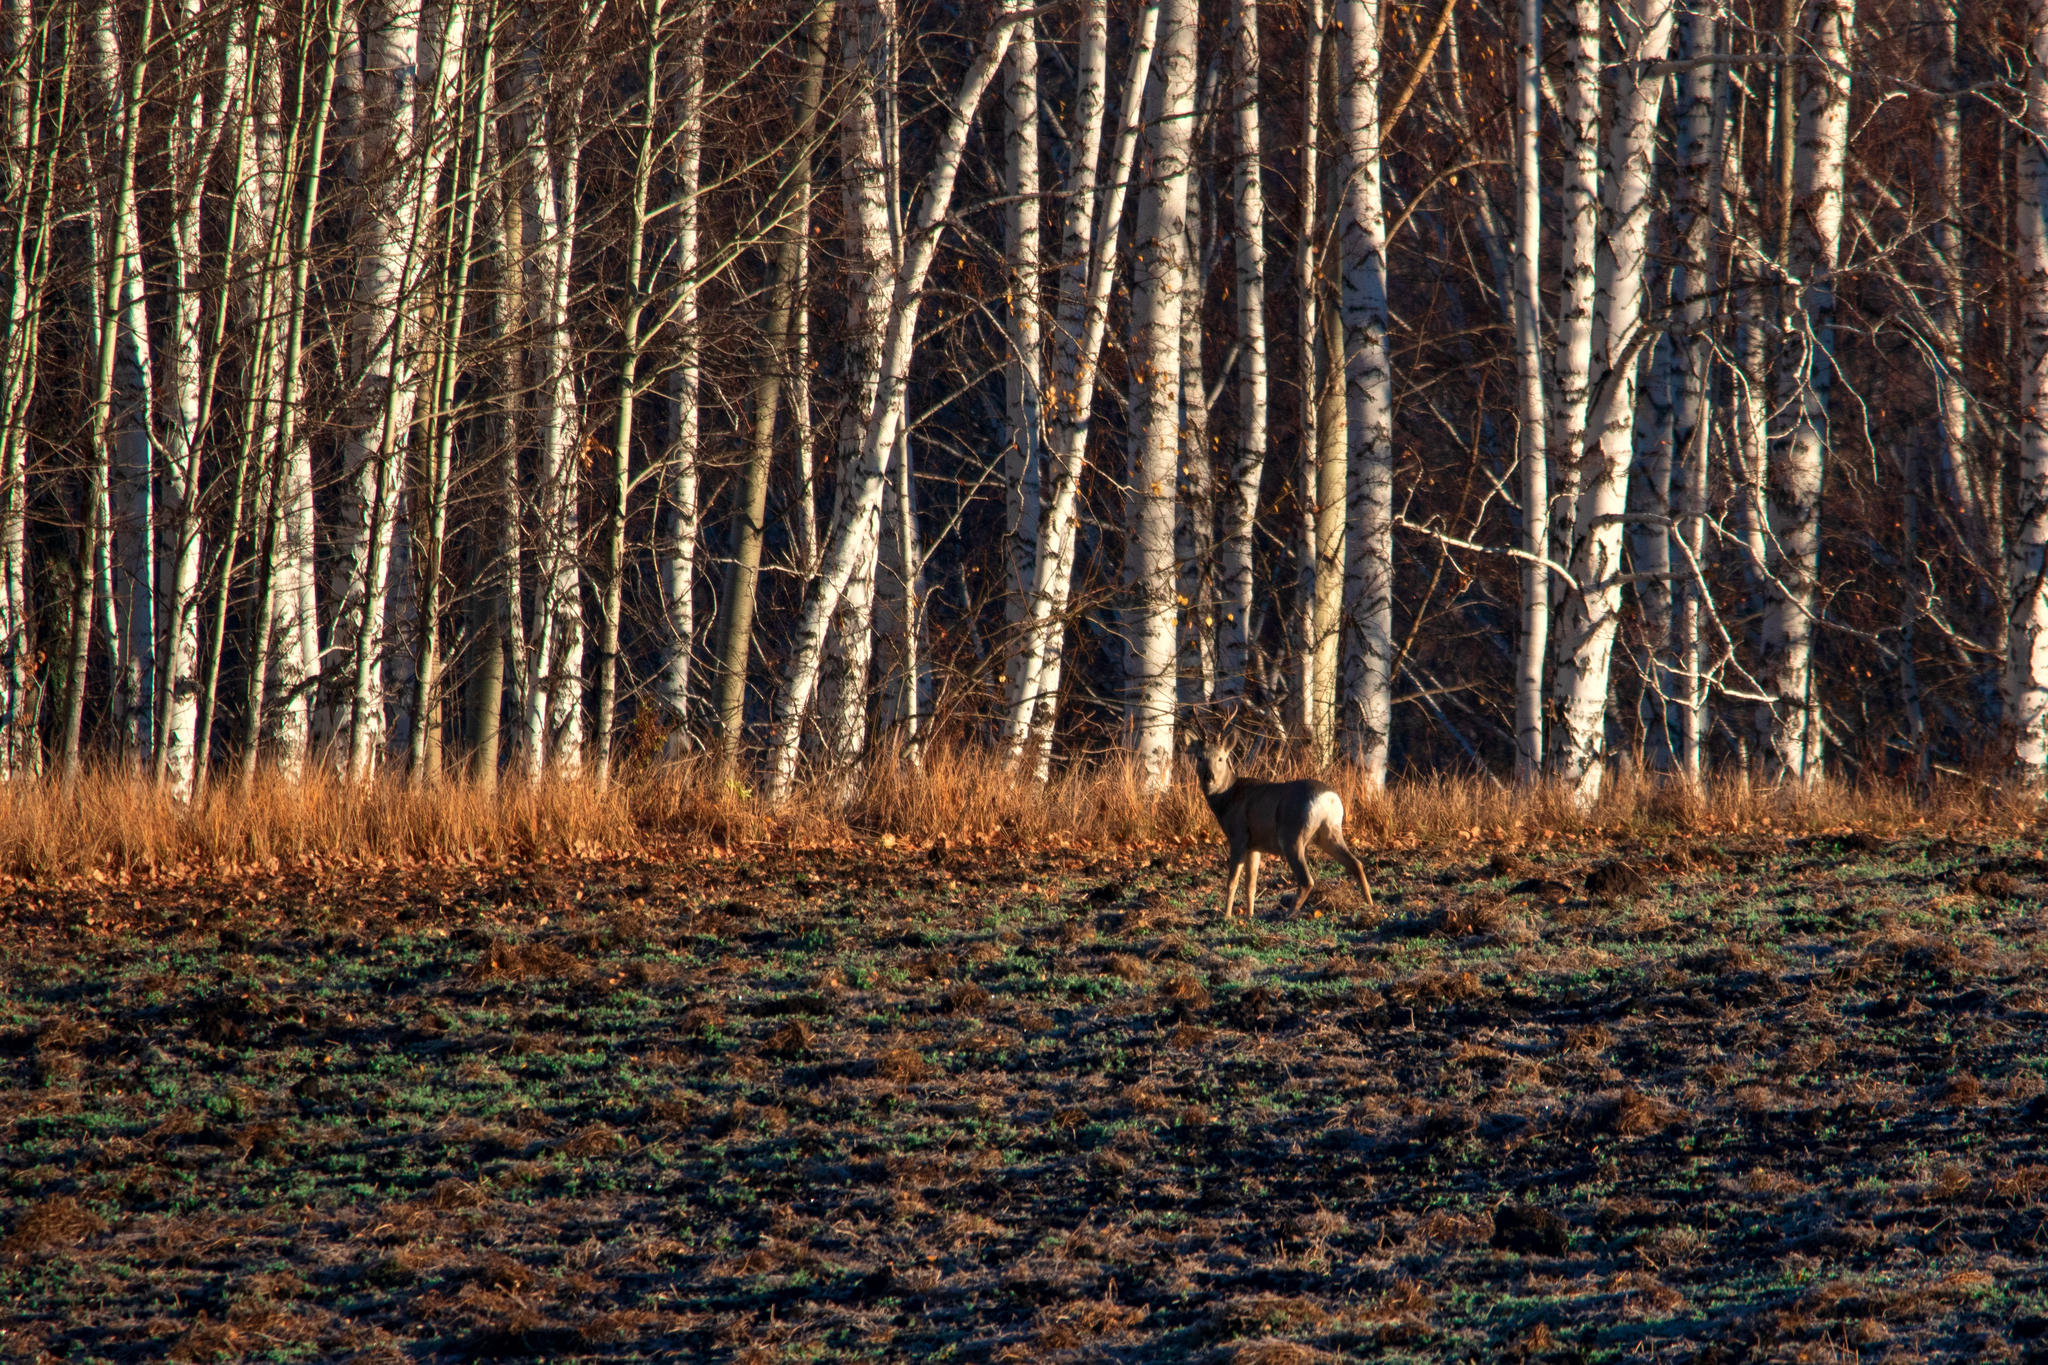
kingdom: Animalia
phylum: Chordata
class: Mammalia
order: Artiodactyla
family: Cervidae
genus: Capreolus
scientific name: Capreolus pygargus
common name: Siberian roe
